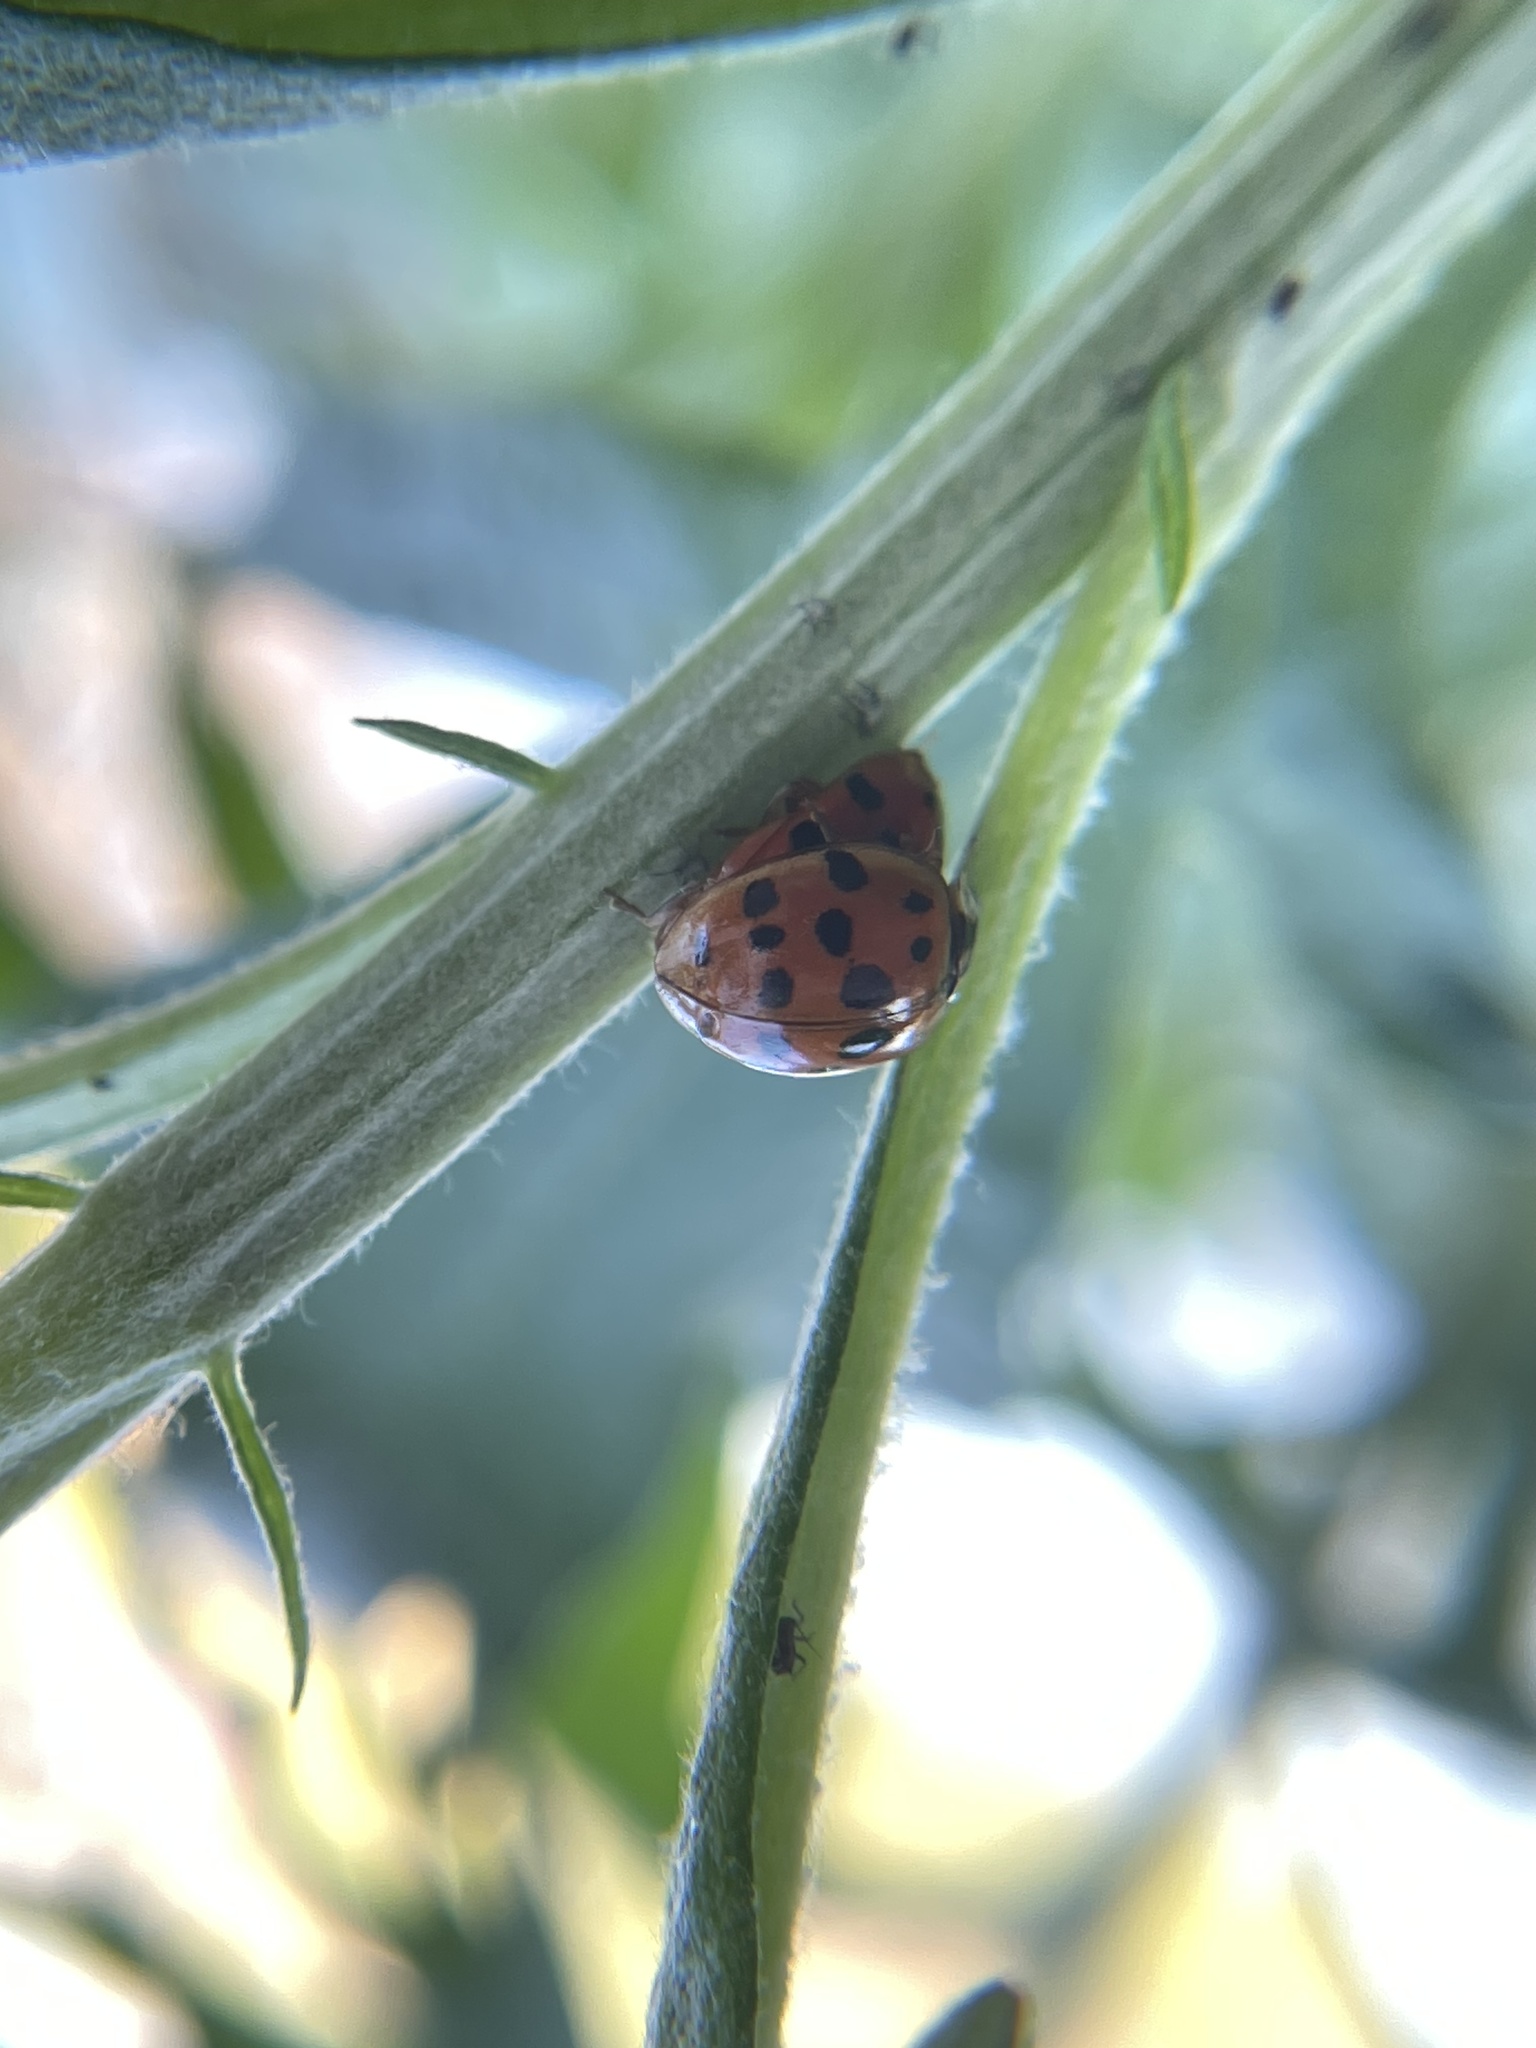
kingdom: Animalia
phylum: Arthropoda
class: Insecta
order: Coleoptera
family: Coccinellidae
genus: Harmonia
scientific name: Harmonia axyridis
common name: Harlequin ladybird
